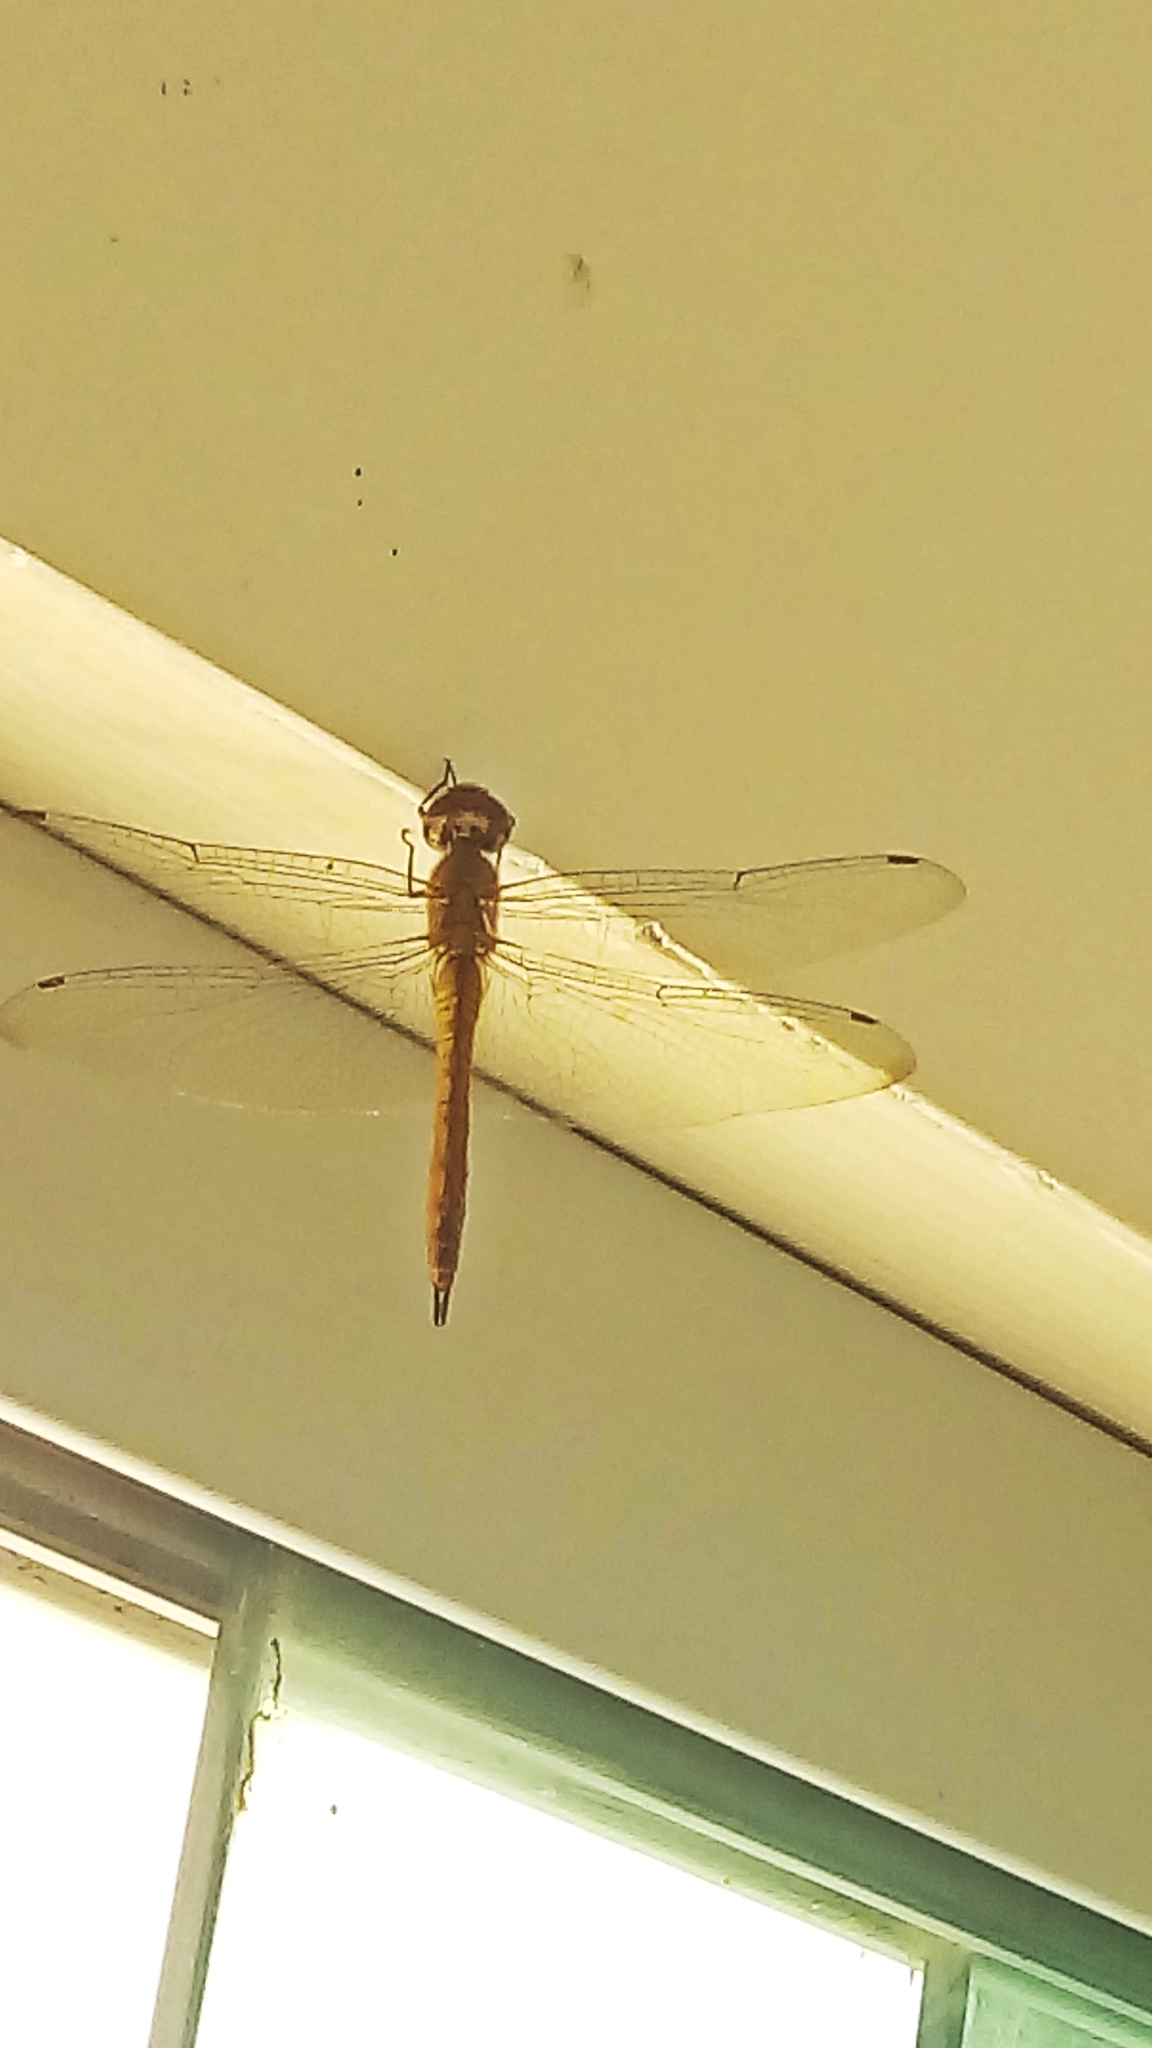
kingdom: Animalia
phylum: Arthropoda
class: Insecta
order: Odonata
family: Libellulidae
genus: Pantala
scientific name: Pantala flavescens
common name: Wandering glider
